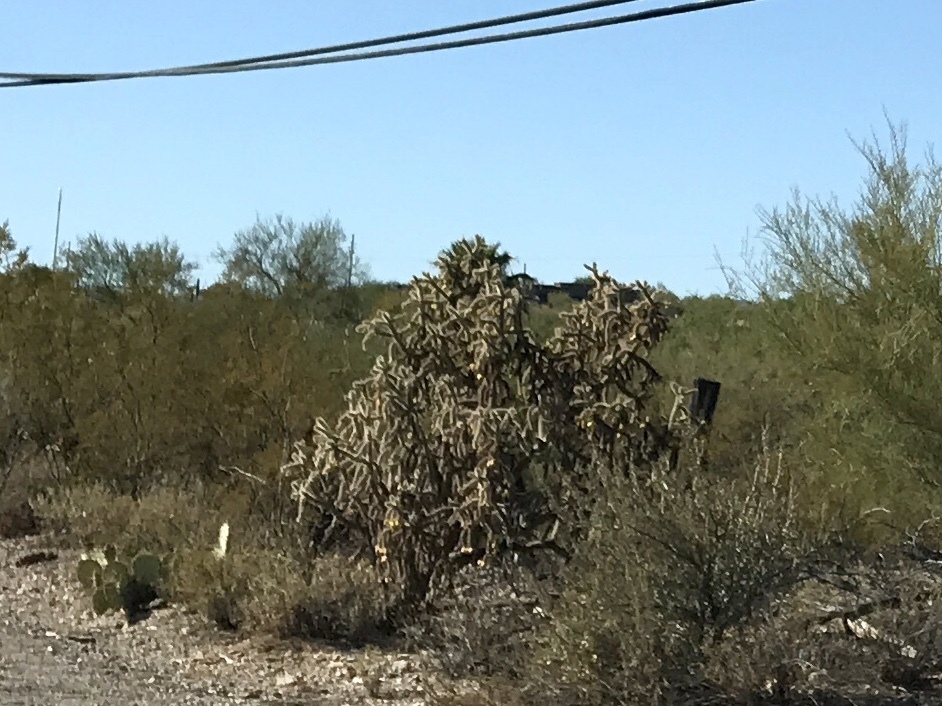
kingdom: Plantae
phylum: Tracheophyta
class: Magnoliopsida
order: Caryophyllales
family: Cactaceae
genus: Cylindropuntia
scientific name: Cylindropuntia thurberi
